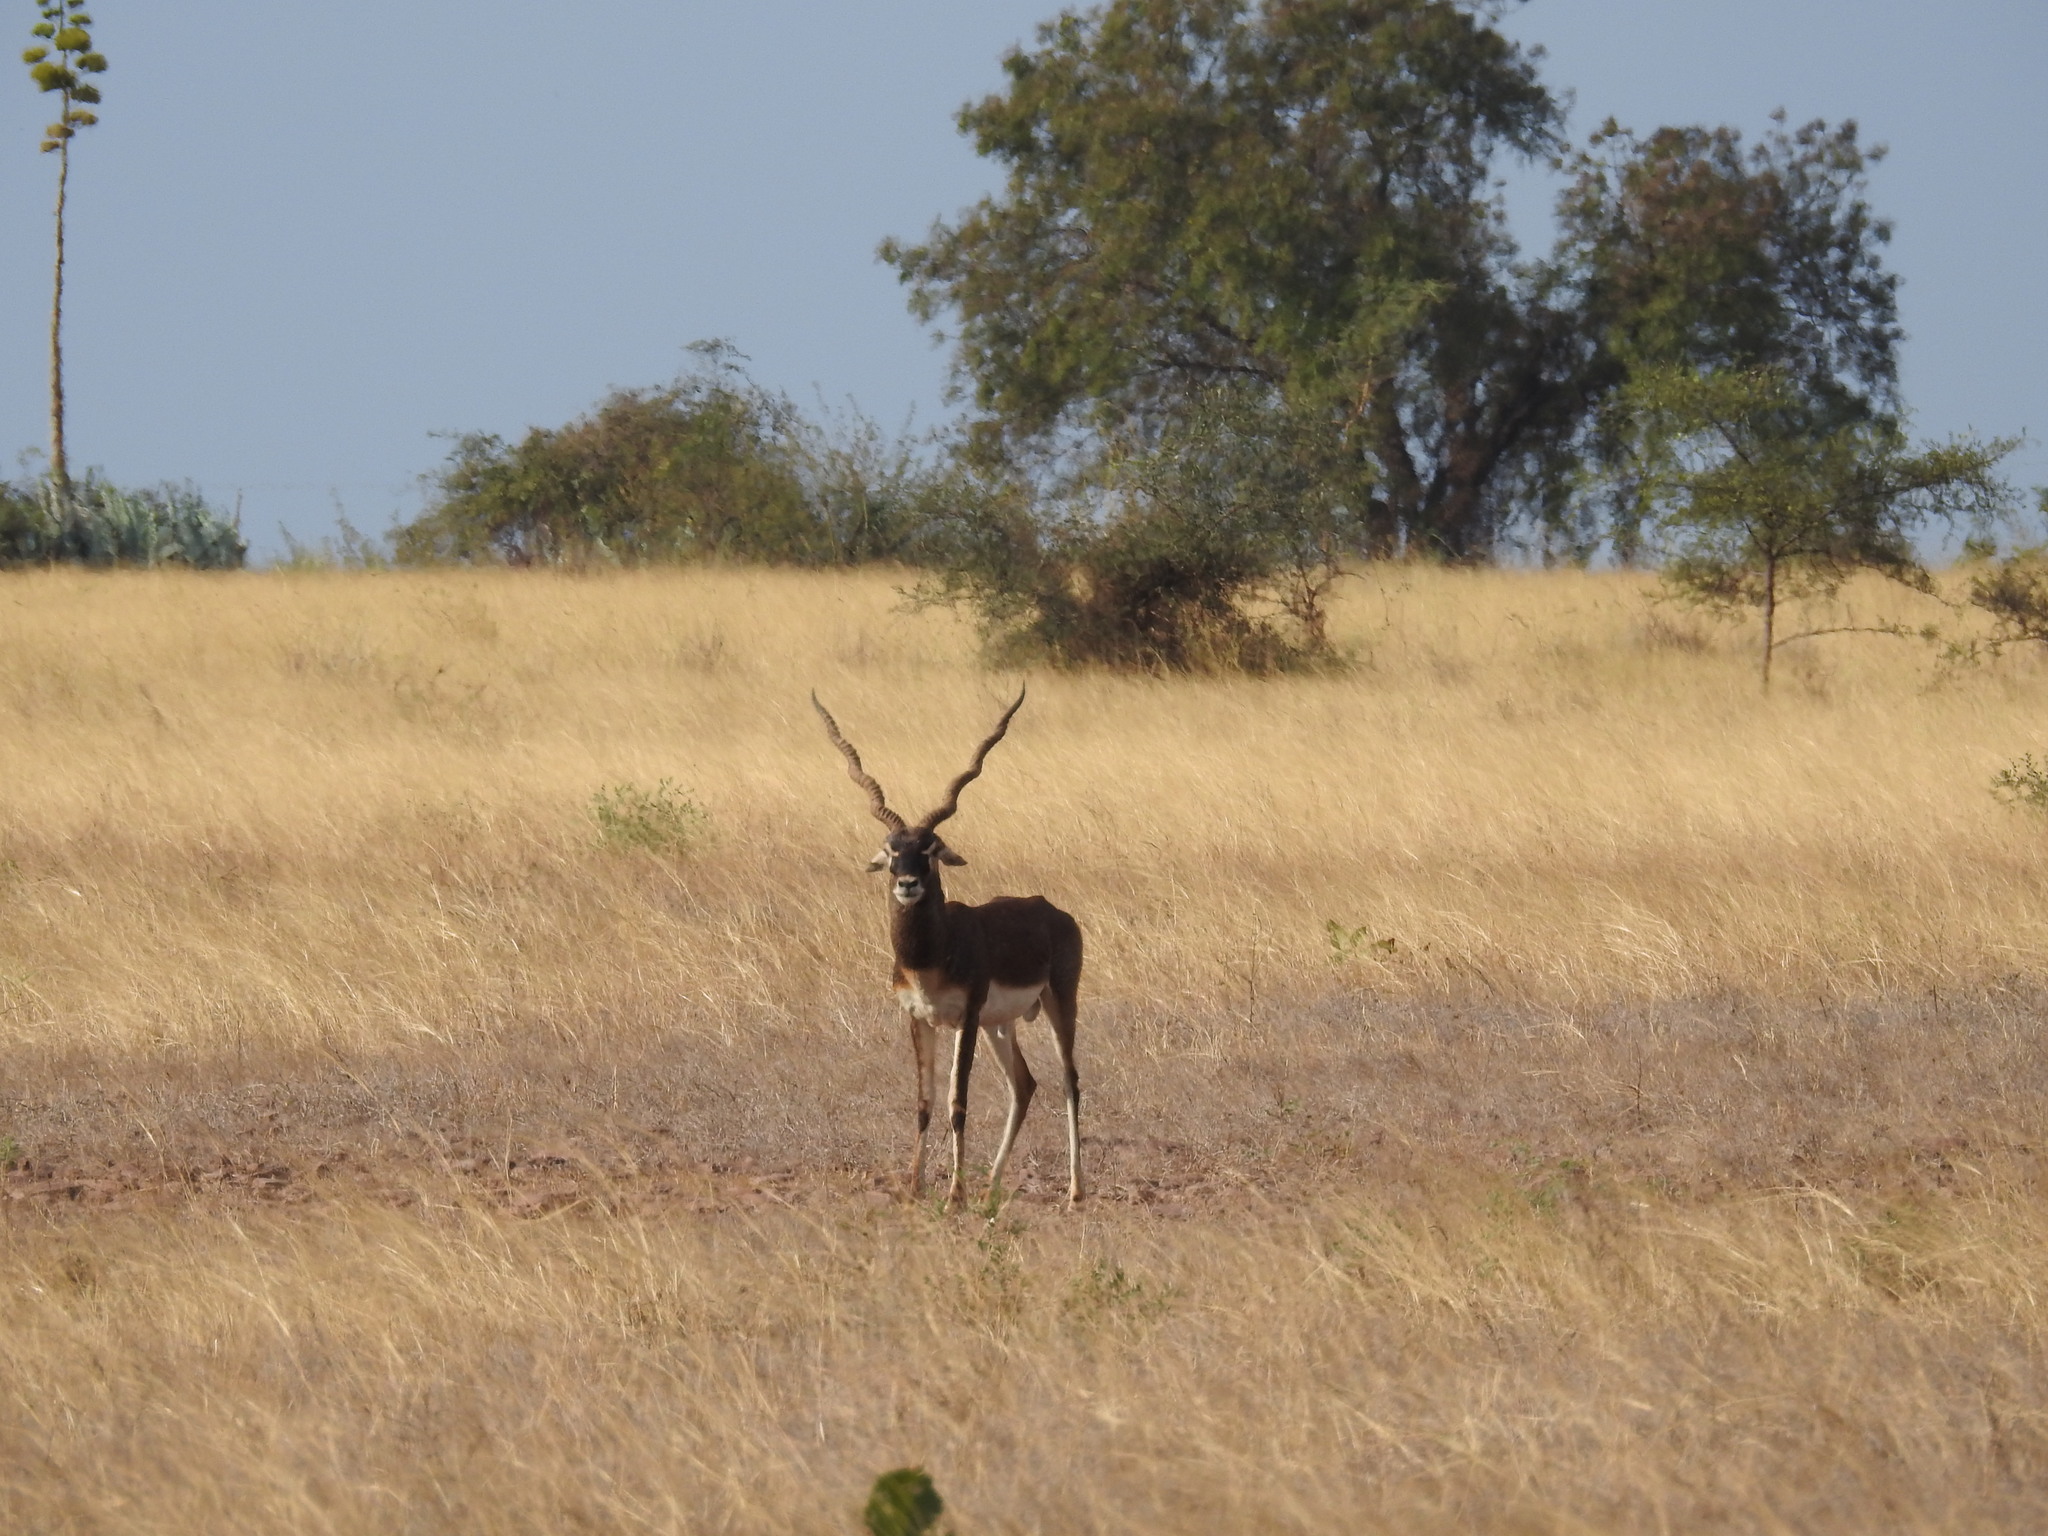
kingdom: Animalia
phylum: Chordata
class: Mammalia
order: Artiodactyla
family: Bovidae
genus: Antilope
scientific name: Antilope cervicapra
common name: Blackbuck
